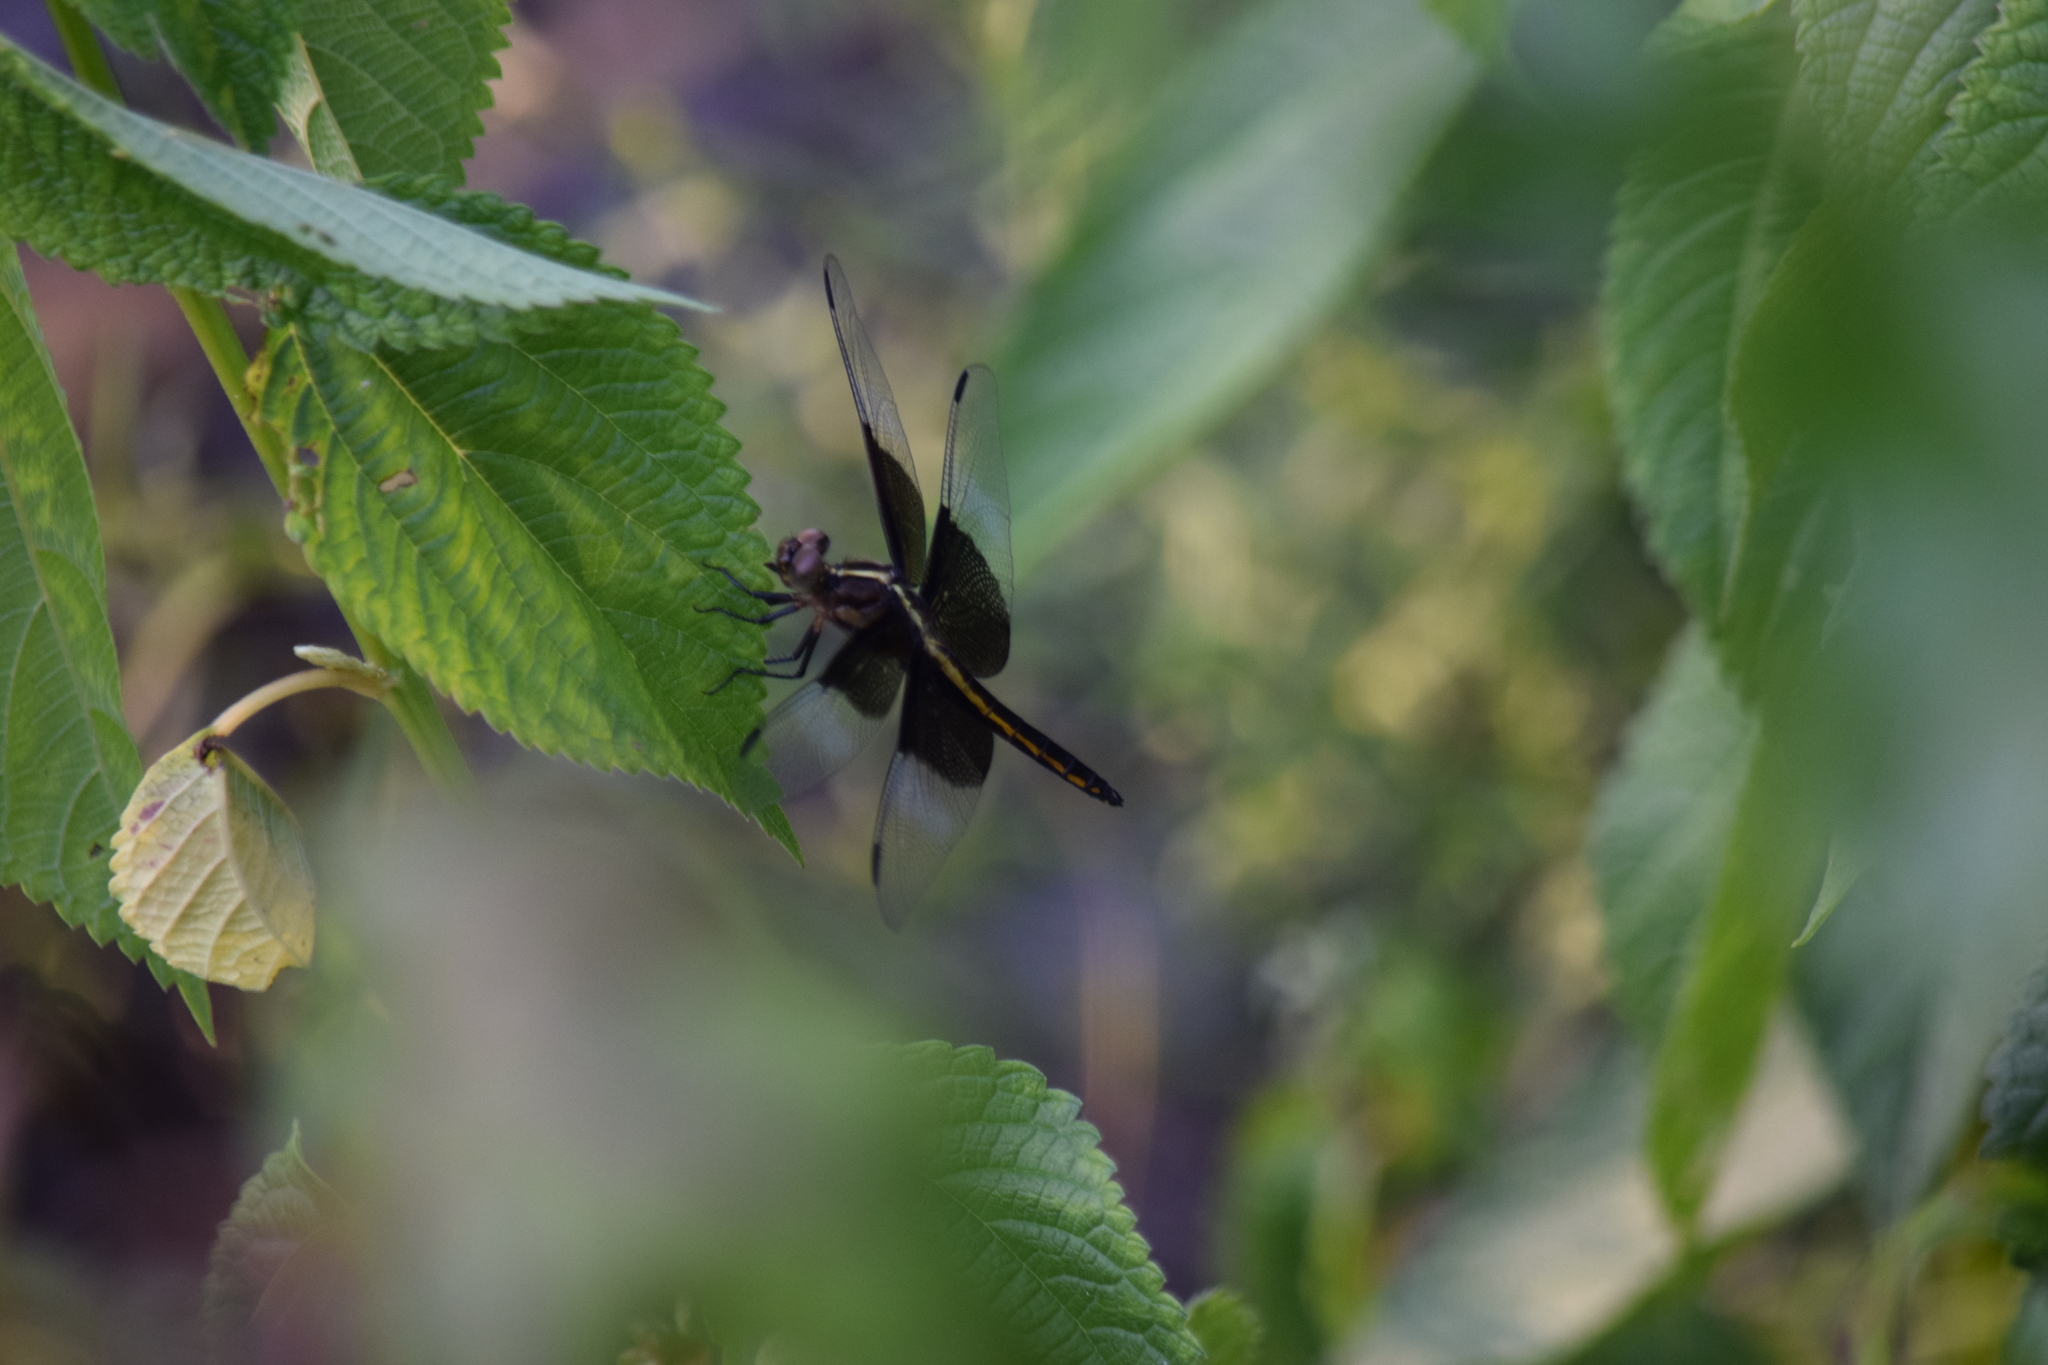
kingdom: Animalia
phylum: Arthropoda
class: Insecta
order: Odonata
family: Libellulidae
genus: Libellula
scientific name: Libellula luctuosa
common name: Widow skimmer
